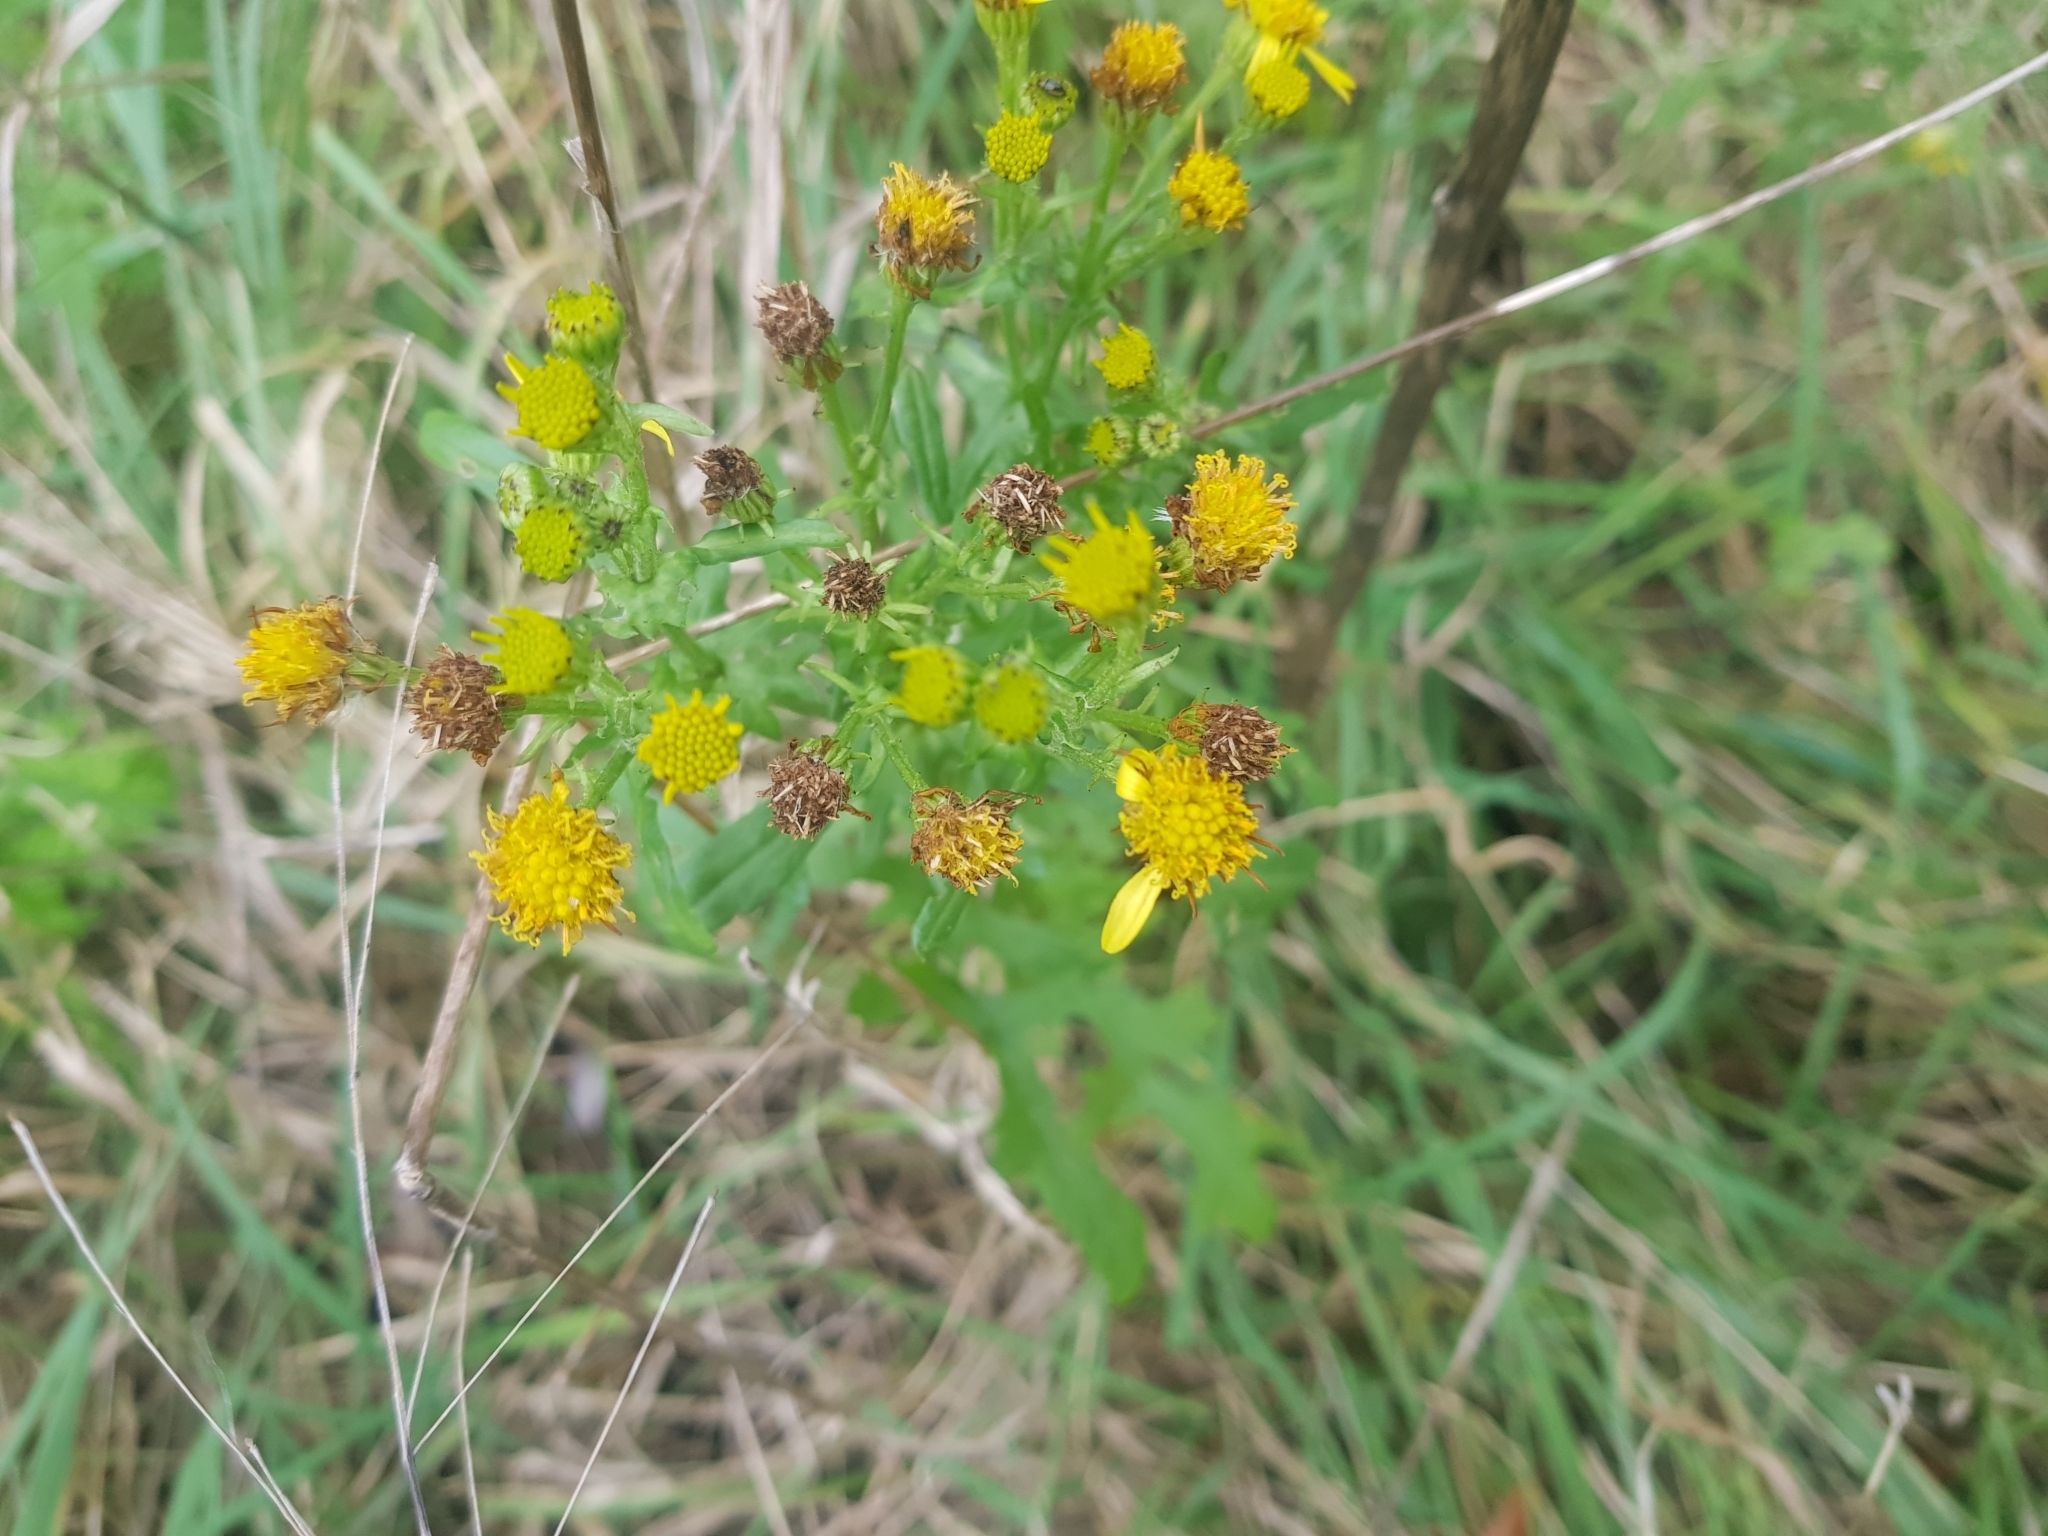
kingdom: Plantae
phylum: Tracheophyta
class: Magnoliopsida
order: Asterales
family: Asteraceae
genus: Jacobaea
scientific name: Jacobaea vulgaris
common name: Stinking willie
